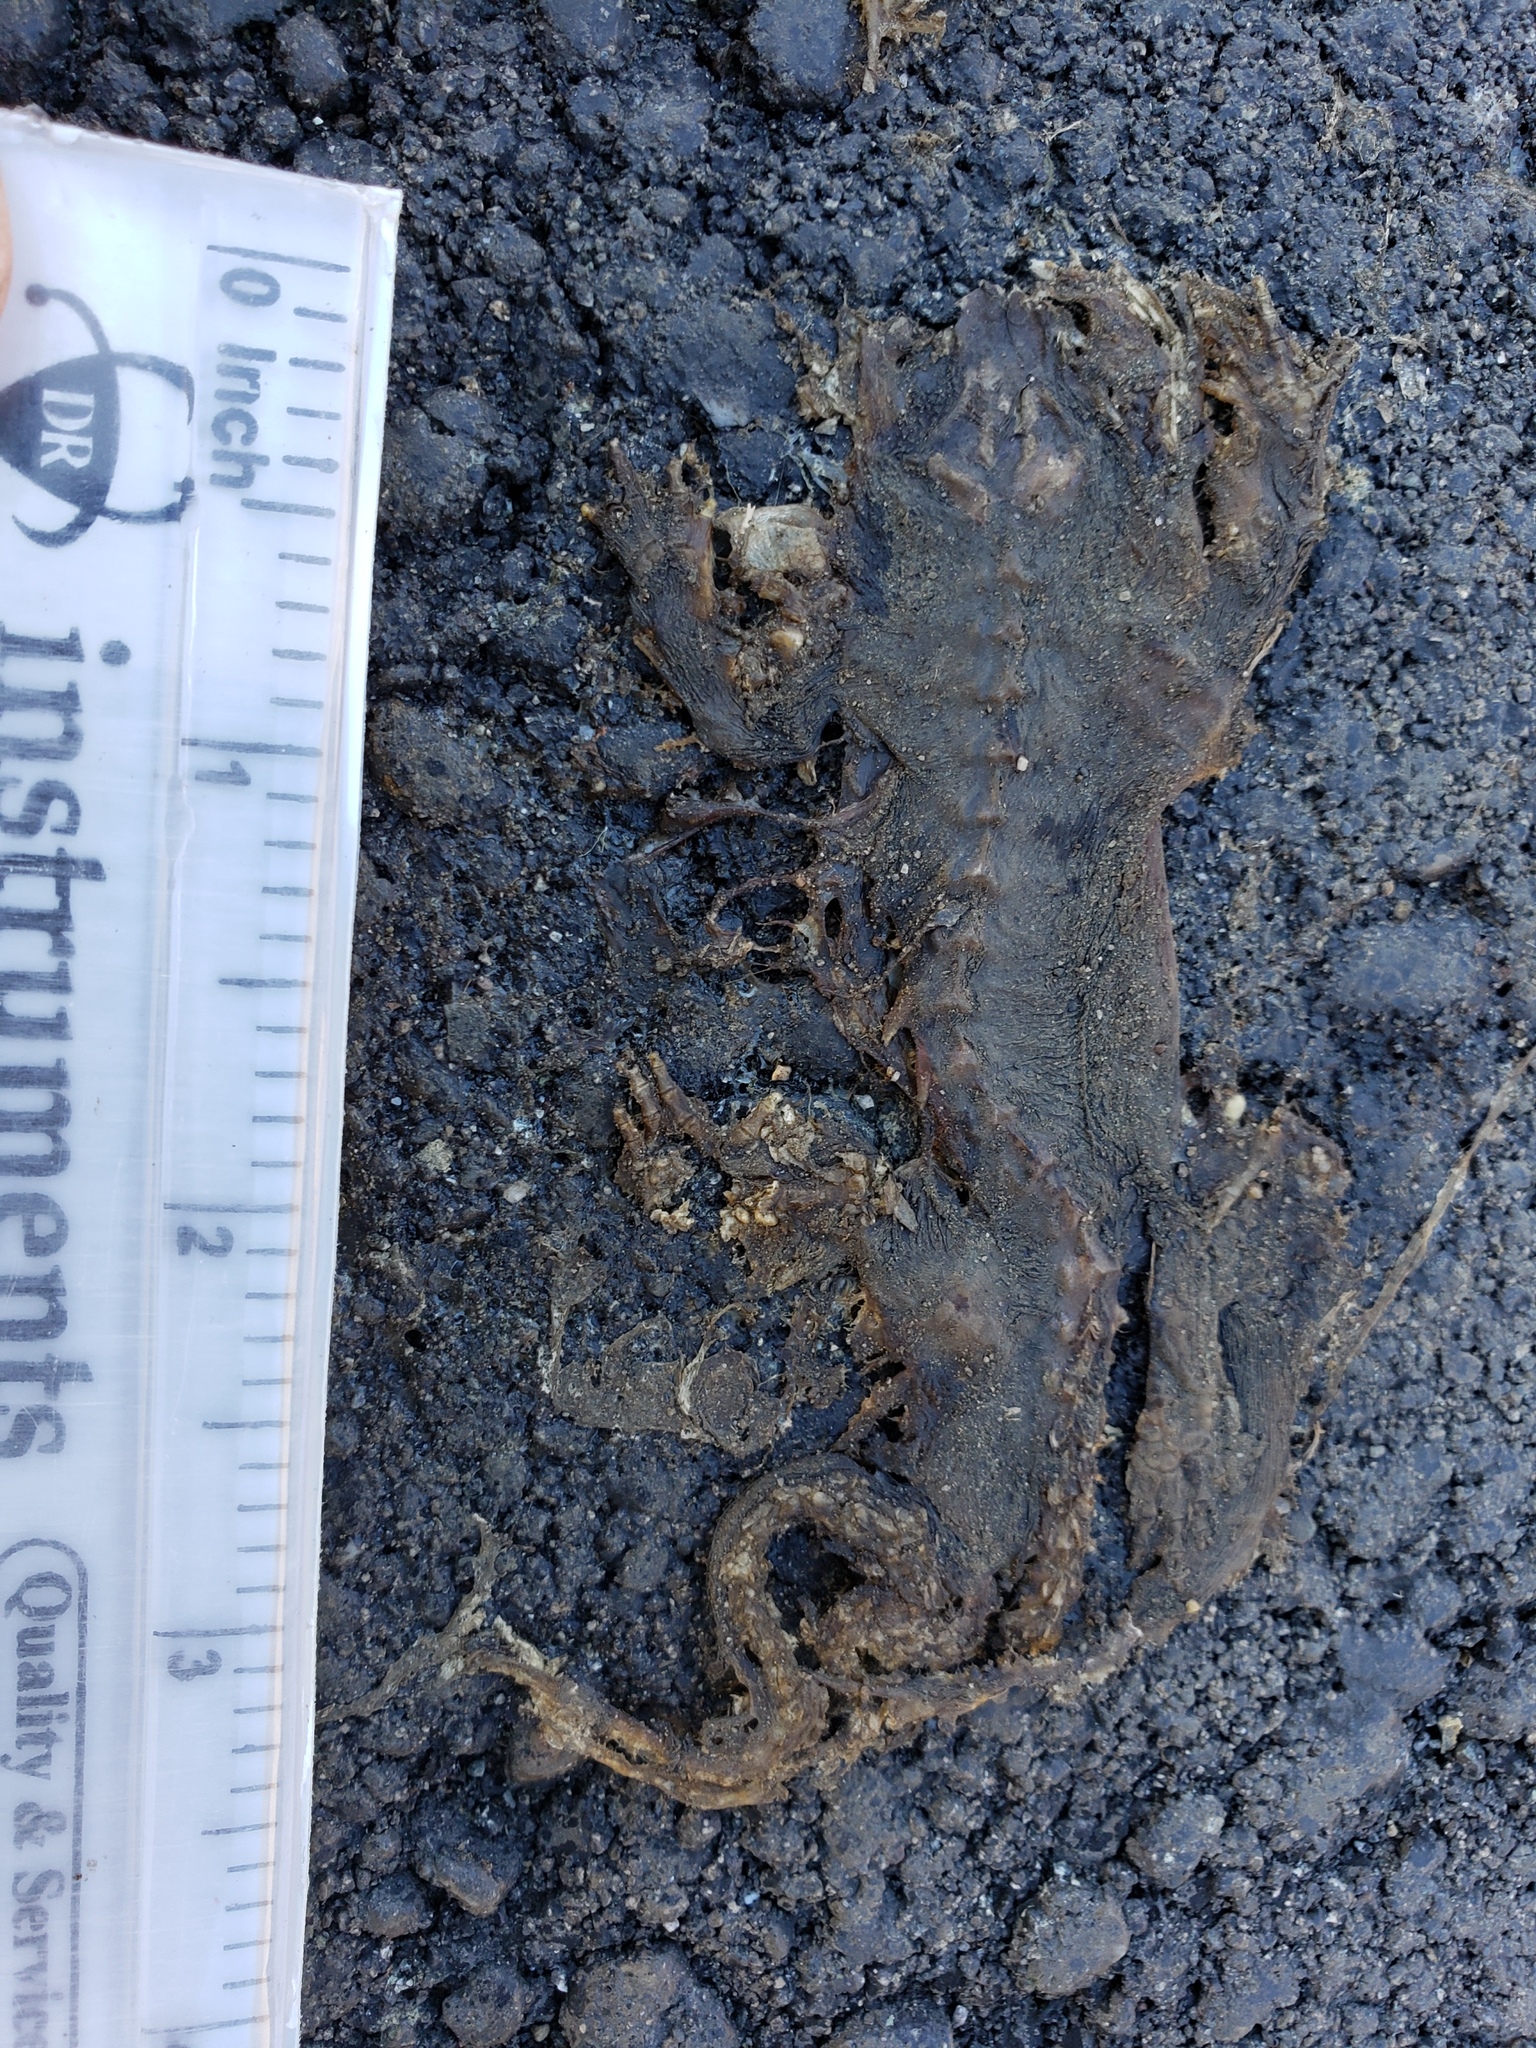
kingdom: Animalia
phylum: Chordata
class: Amphibia
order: Caudata
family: Salamandridae
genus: Taricha
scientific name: Taricha
